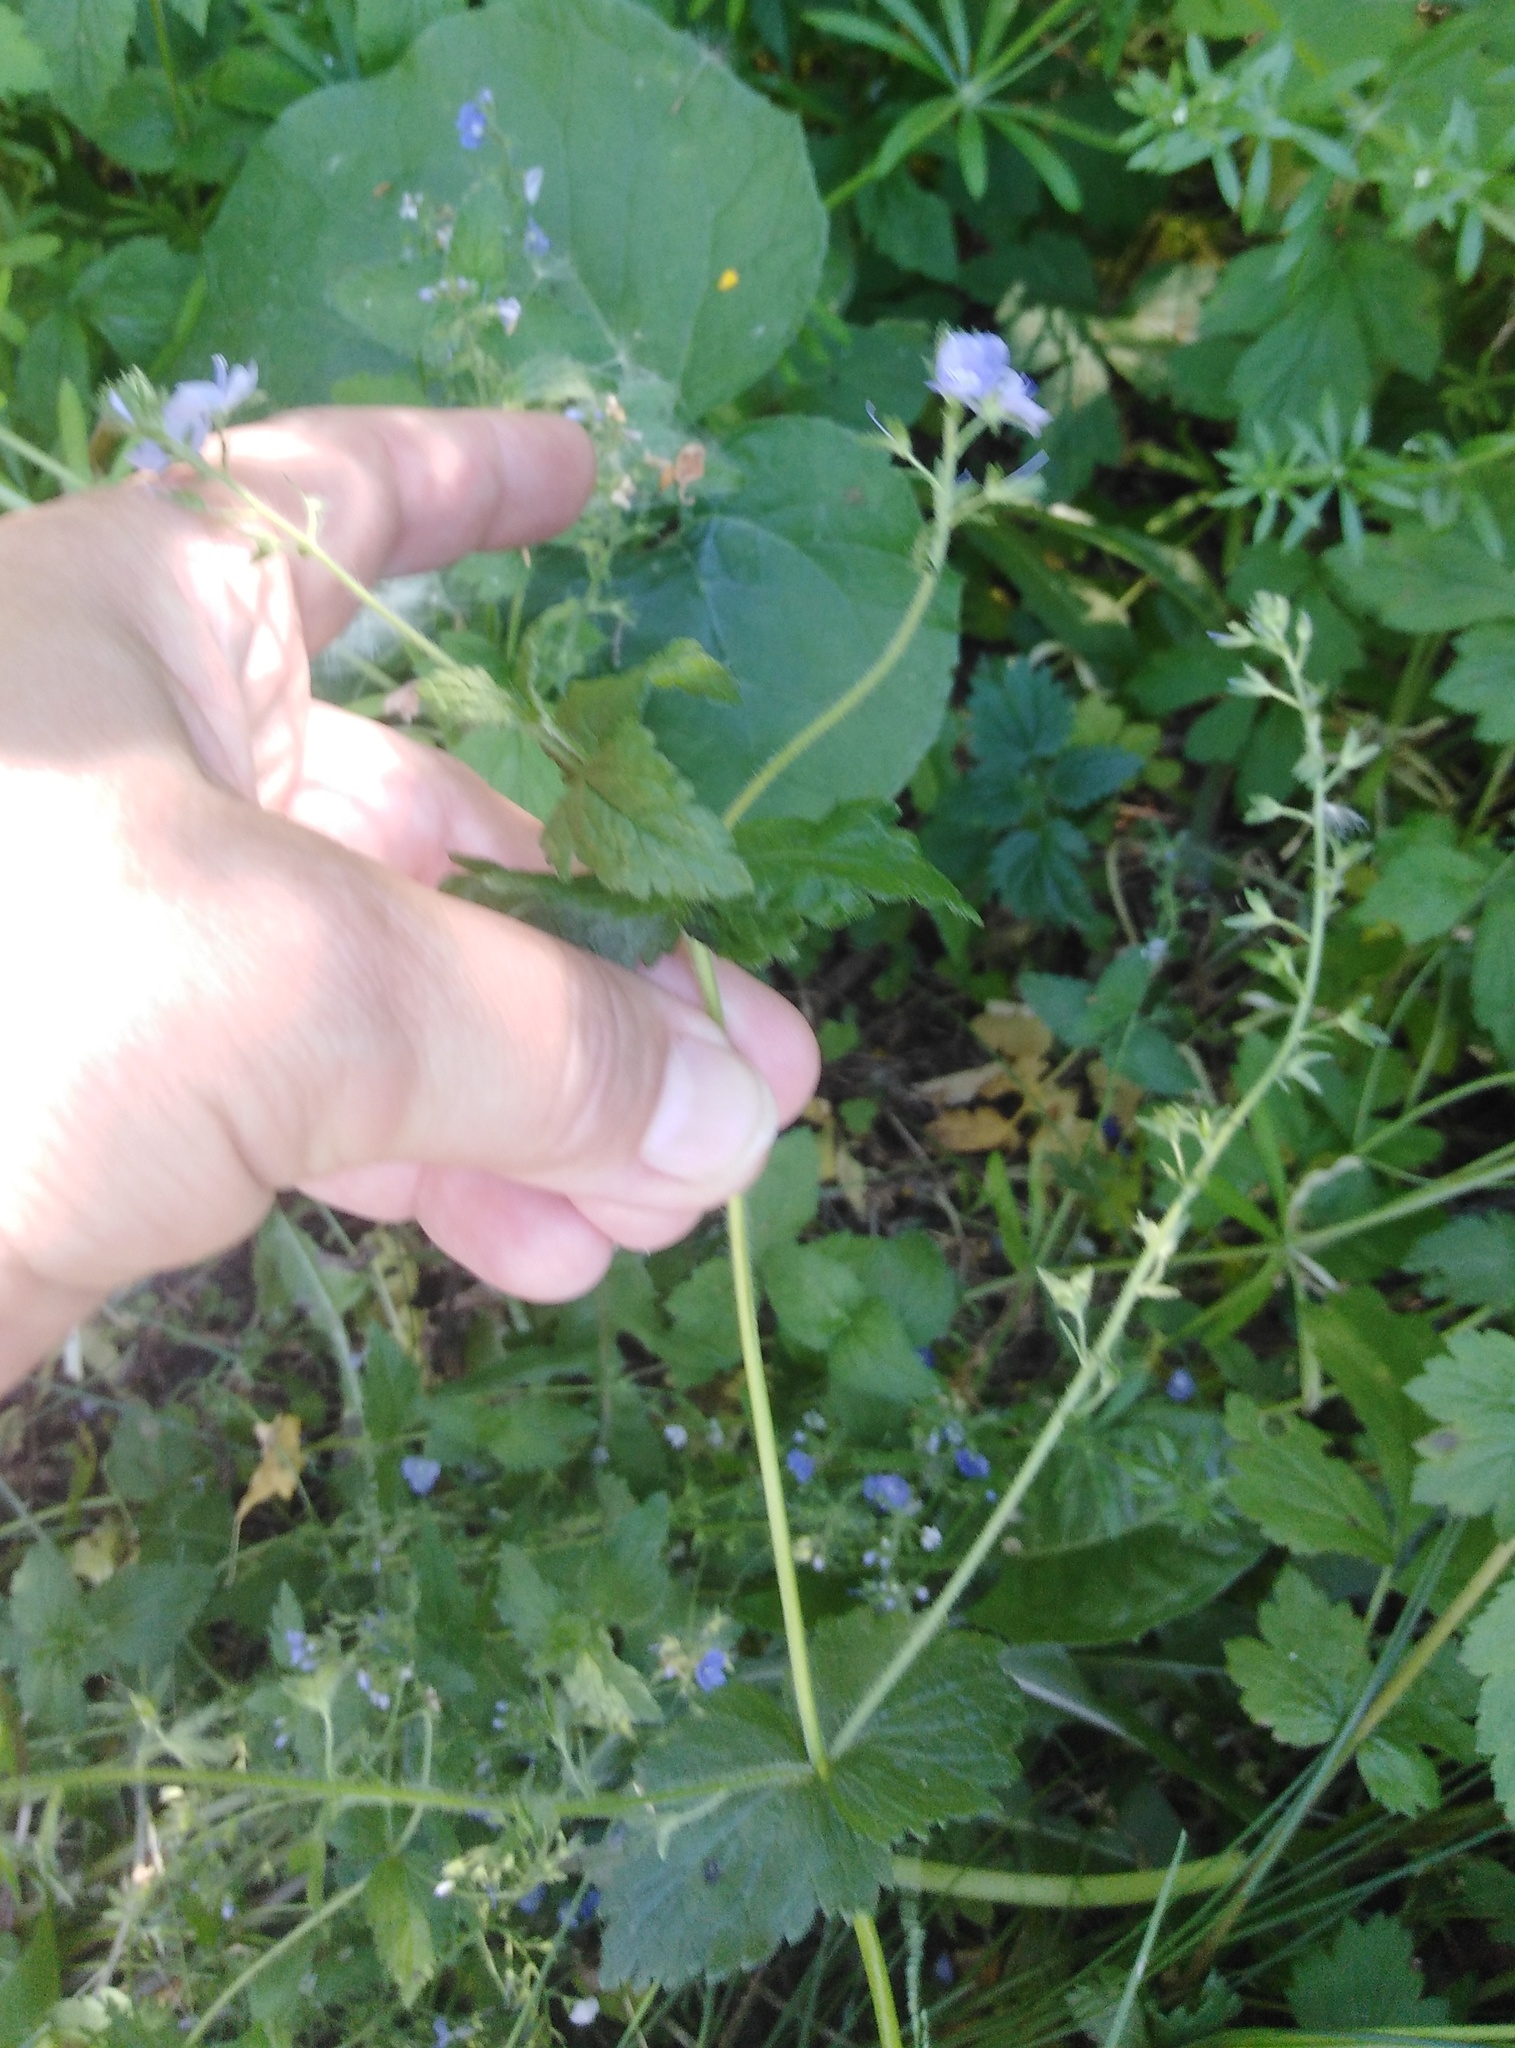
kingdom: Plantae
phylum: Tracheophyta
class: Magnoliopsida
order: Lamiales
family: Plantaginaceae
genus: Veronica
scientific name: Veronica chamaedrys
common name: Germander speedwell
